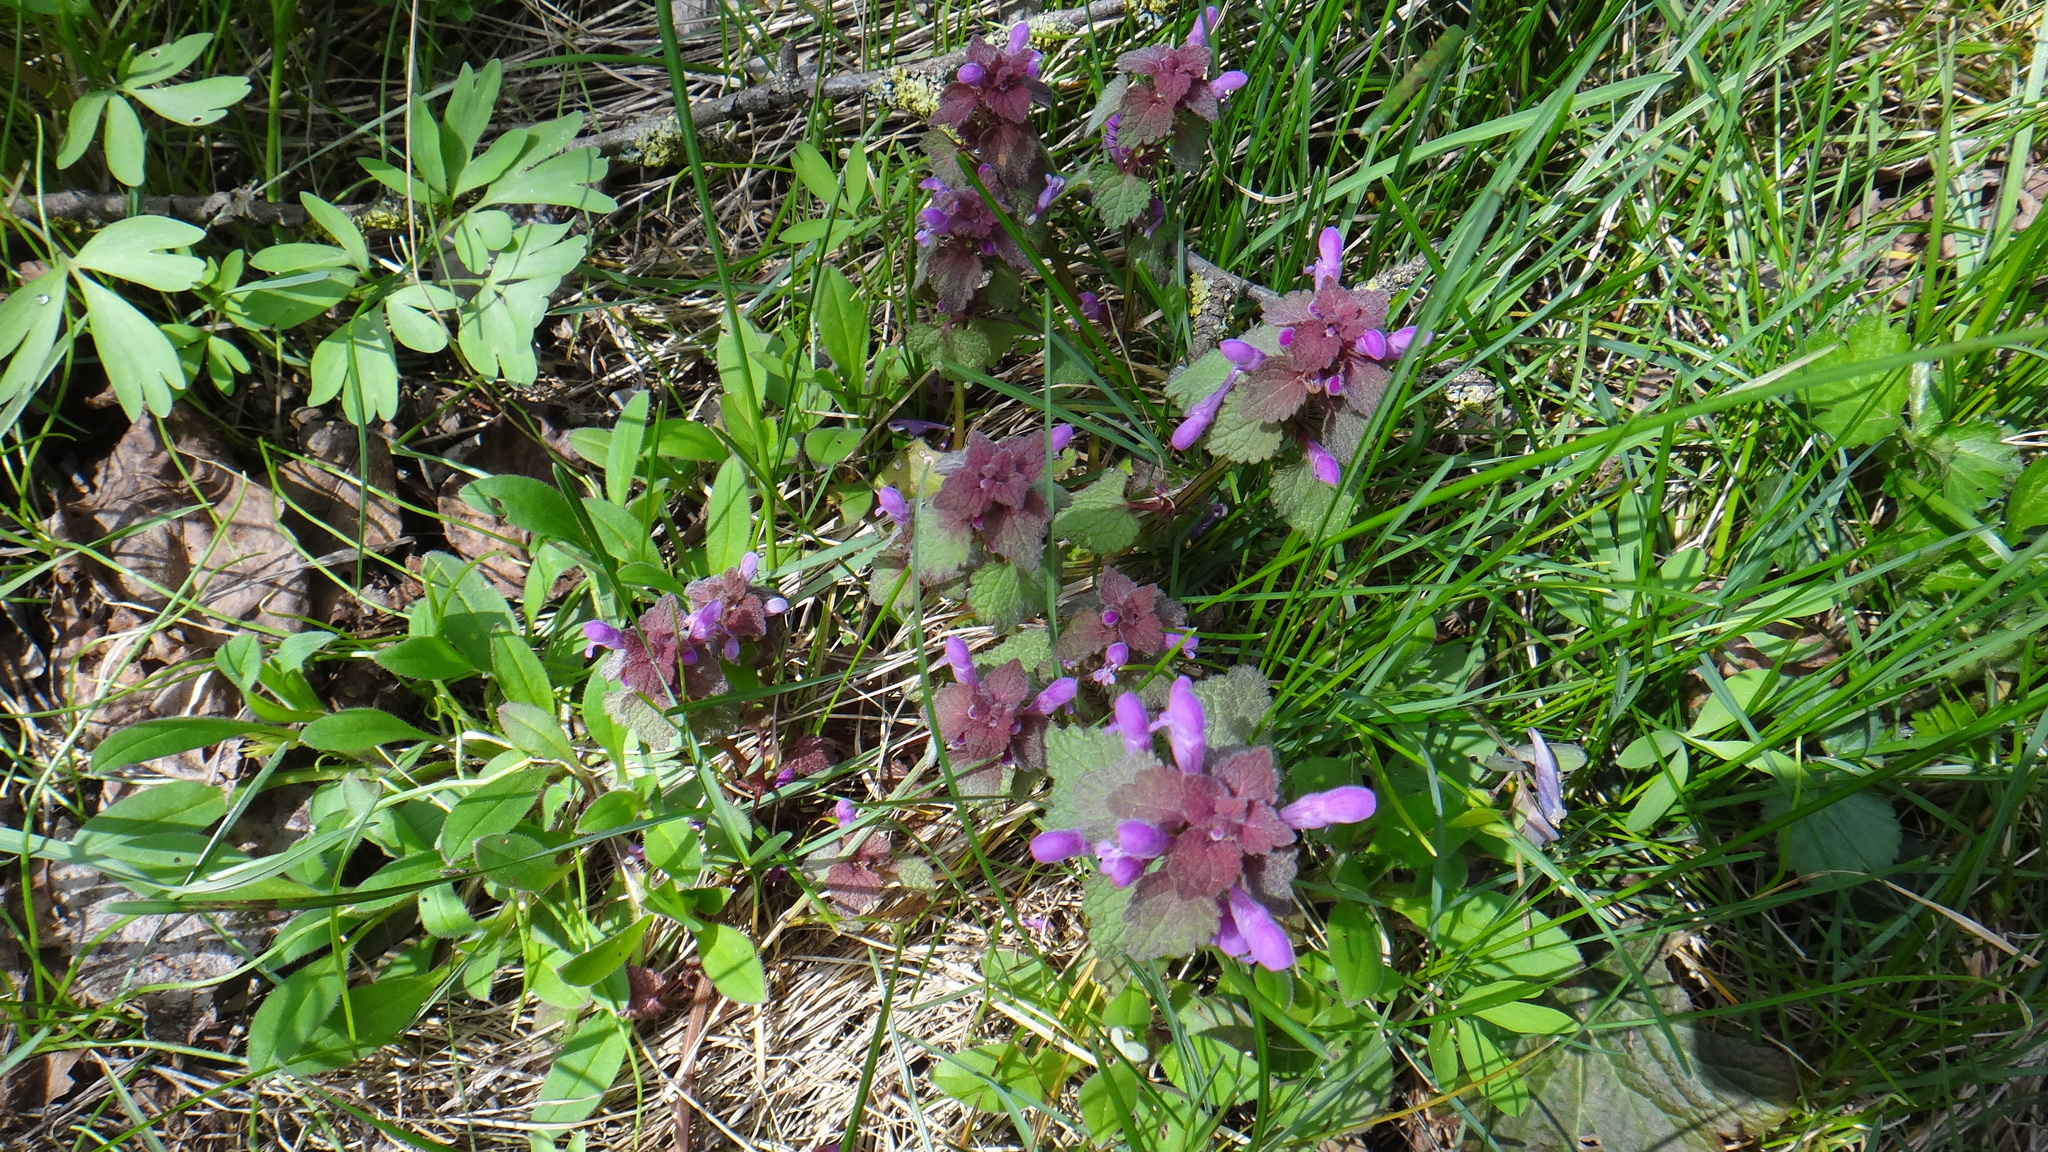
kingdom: Plantae
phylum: Tracheophyta
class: Magnoliopsida
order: Lamiales
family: Lamiaceae
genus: Lamium
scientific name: Lamium purpureum
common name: Red dead-nettle
